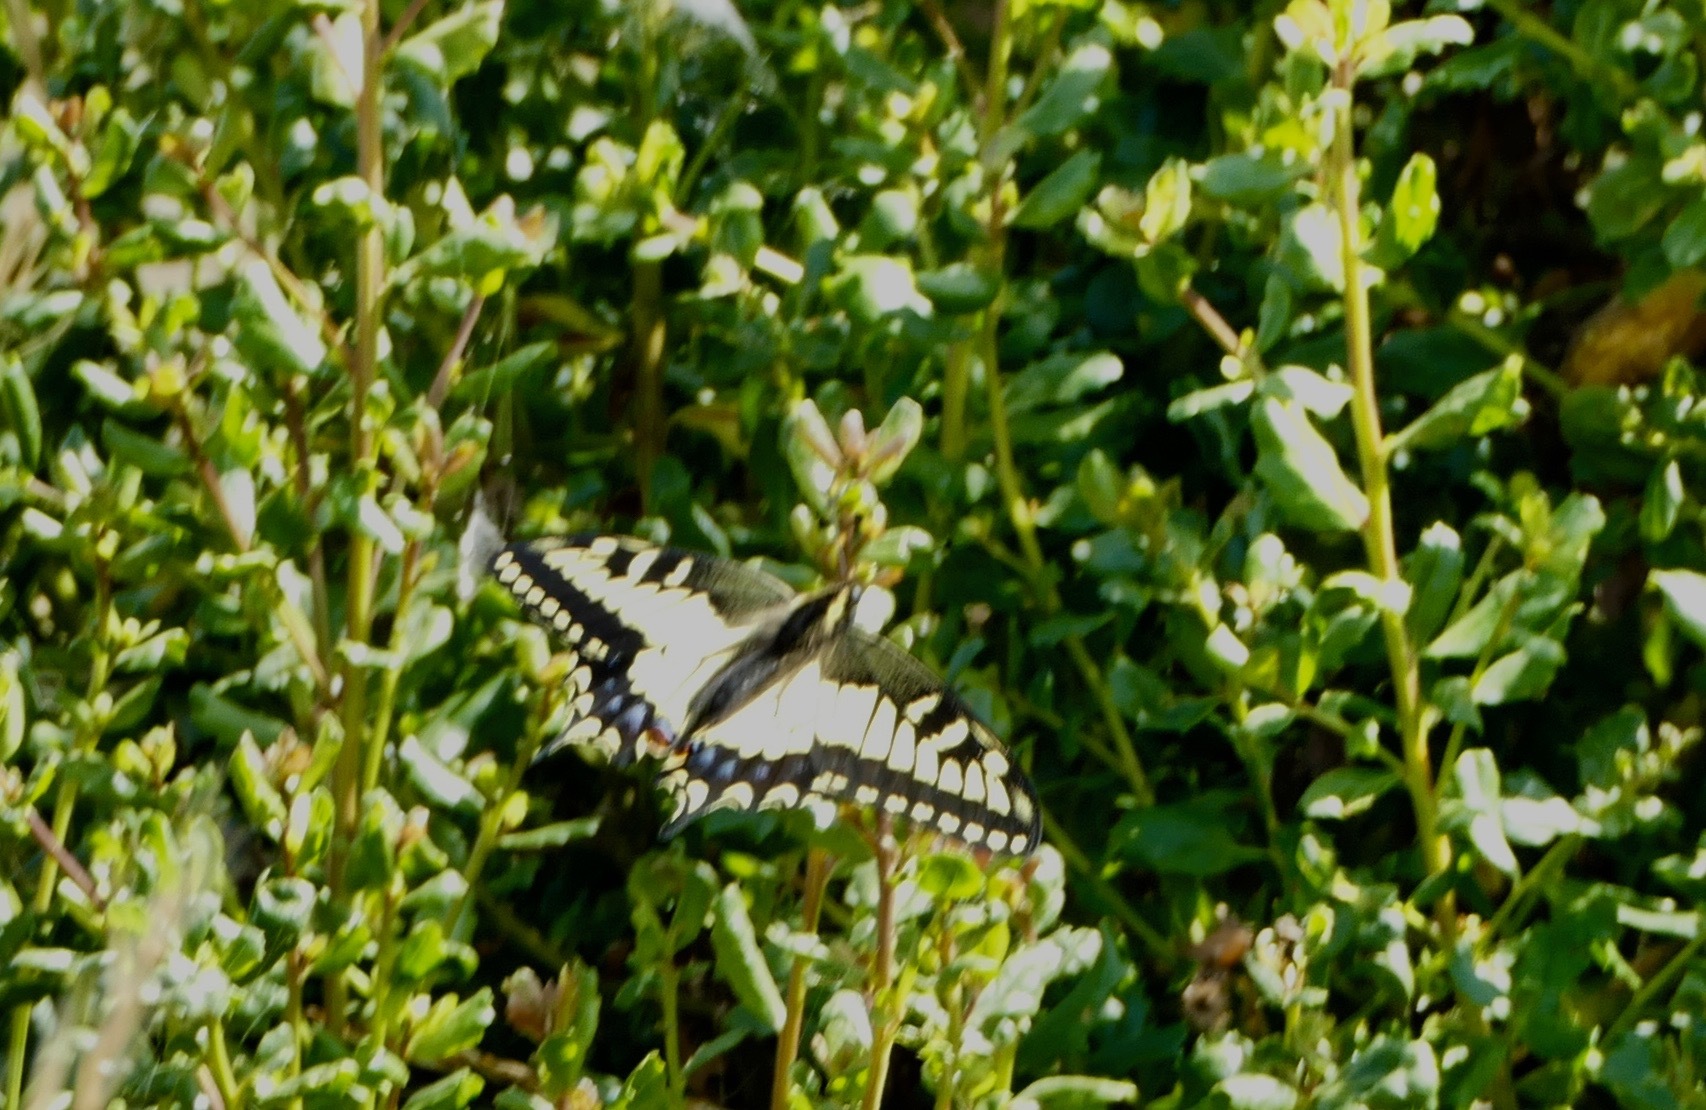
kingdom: Animalia
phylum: Arthropoda
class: Insecta
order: Lepidoptera
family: Papilionidae
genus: Papilio
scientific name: Papilio zelicaon
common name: Anise swallowtail
